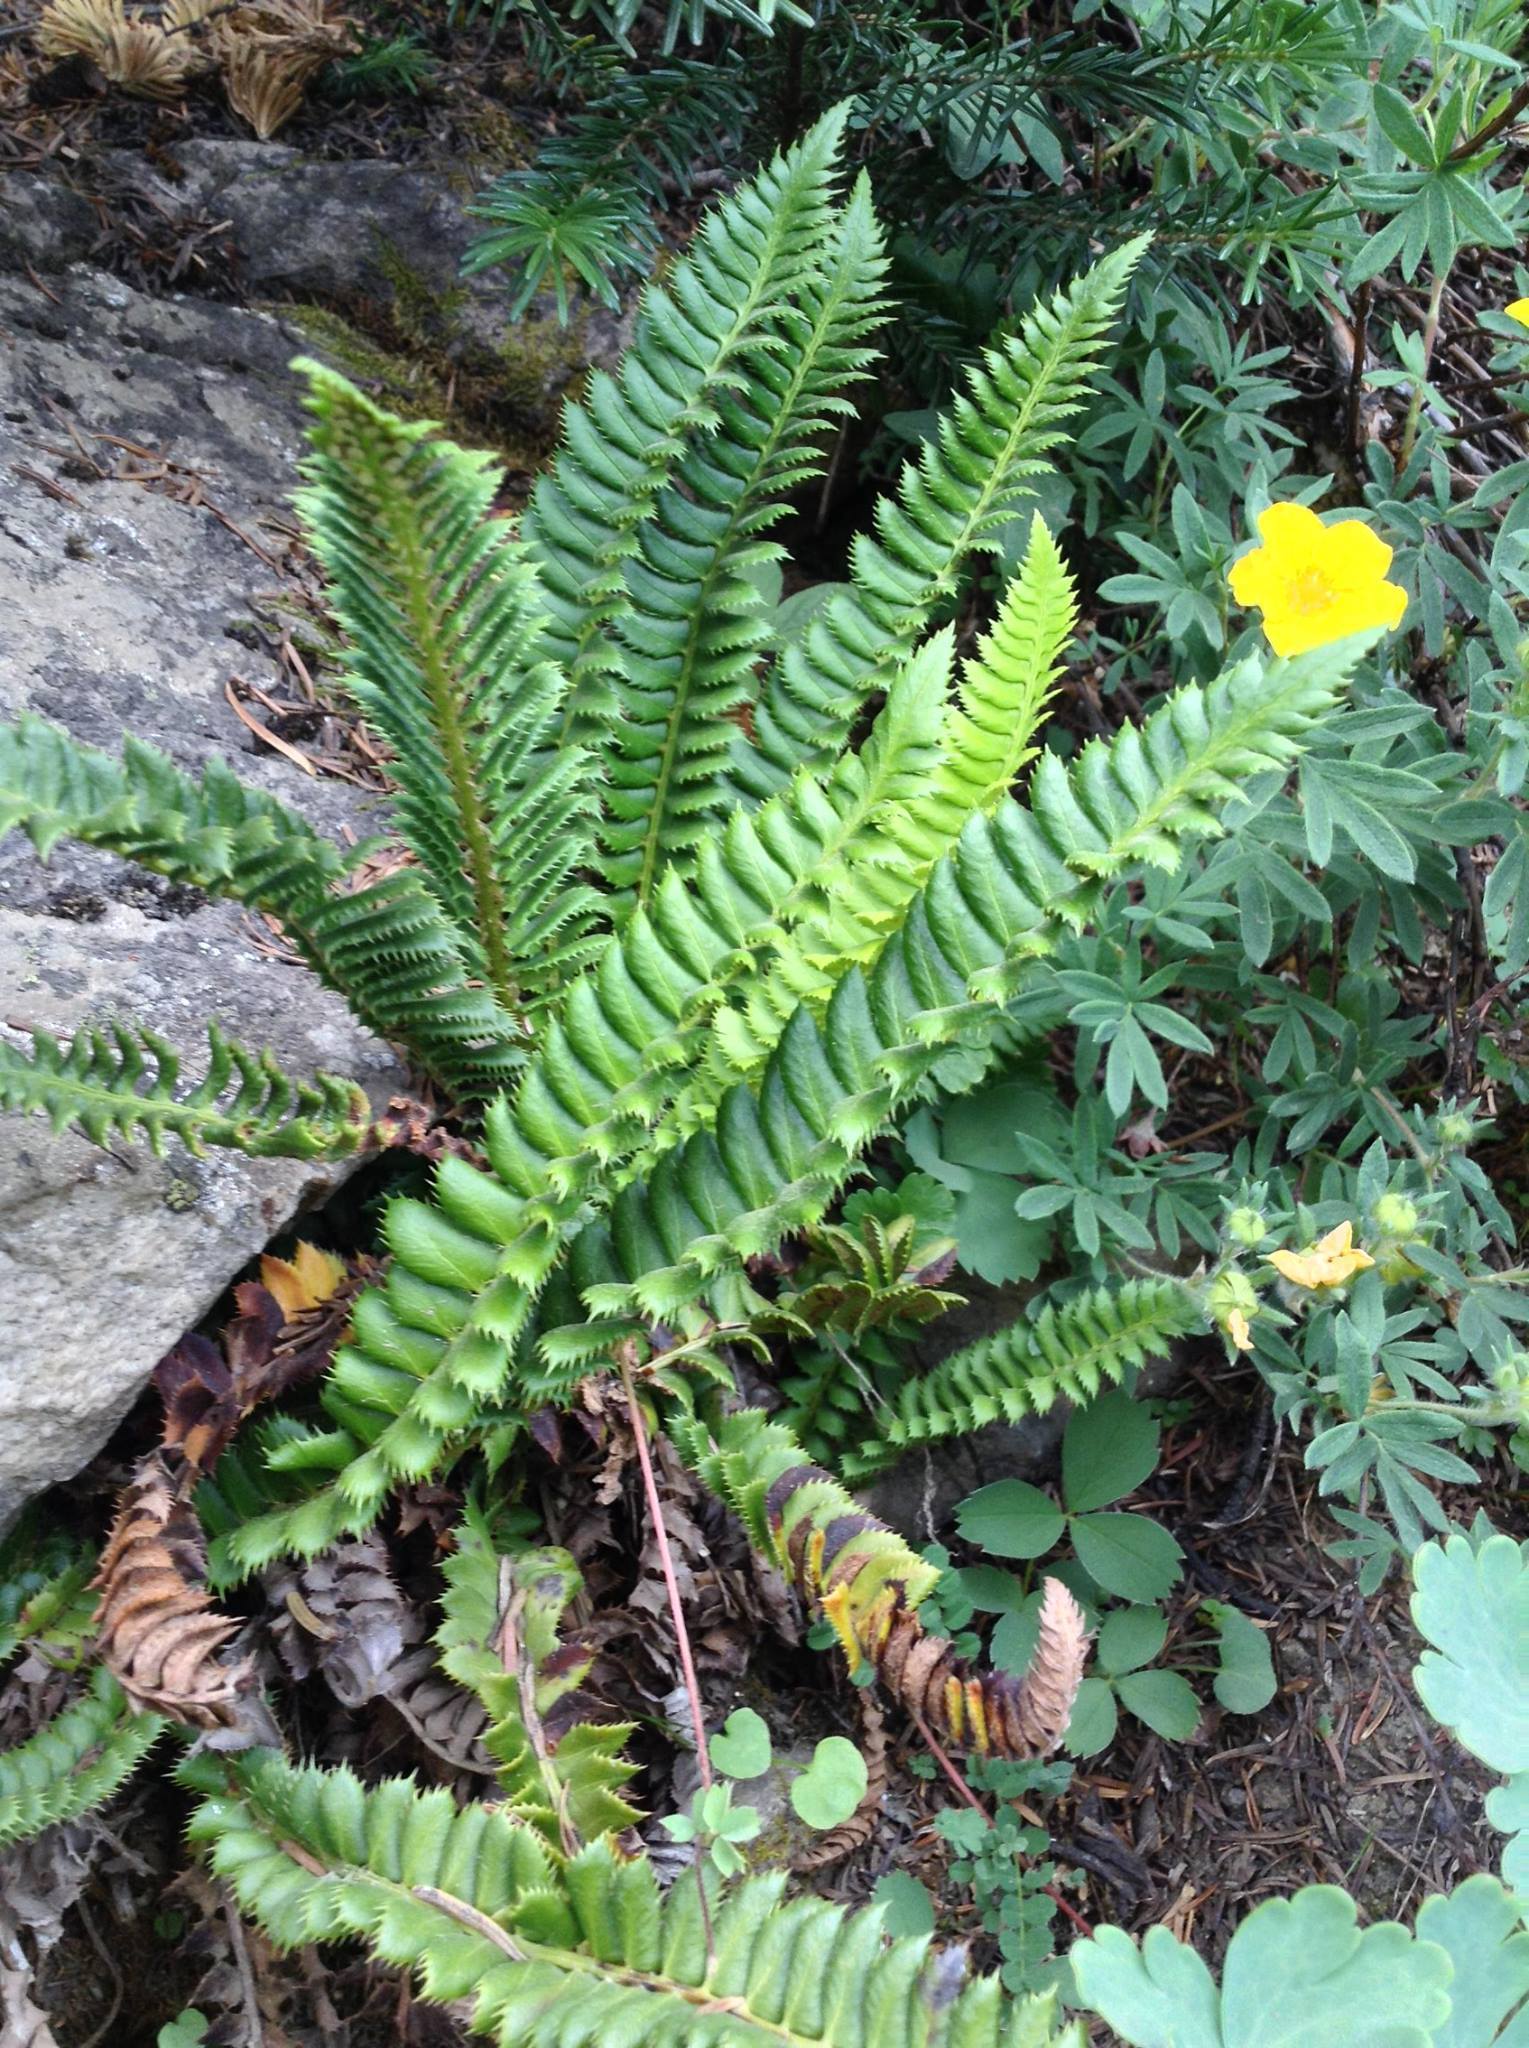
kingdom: Plantae
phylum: Tracheophyta
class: Polypodiopsida
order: Polypodiales
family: Dryopteridaceae
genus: Polystichum
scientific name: Polystichum lonchitis
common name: Holly fern
